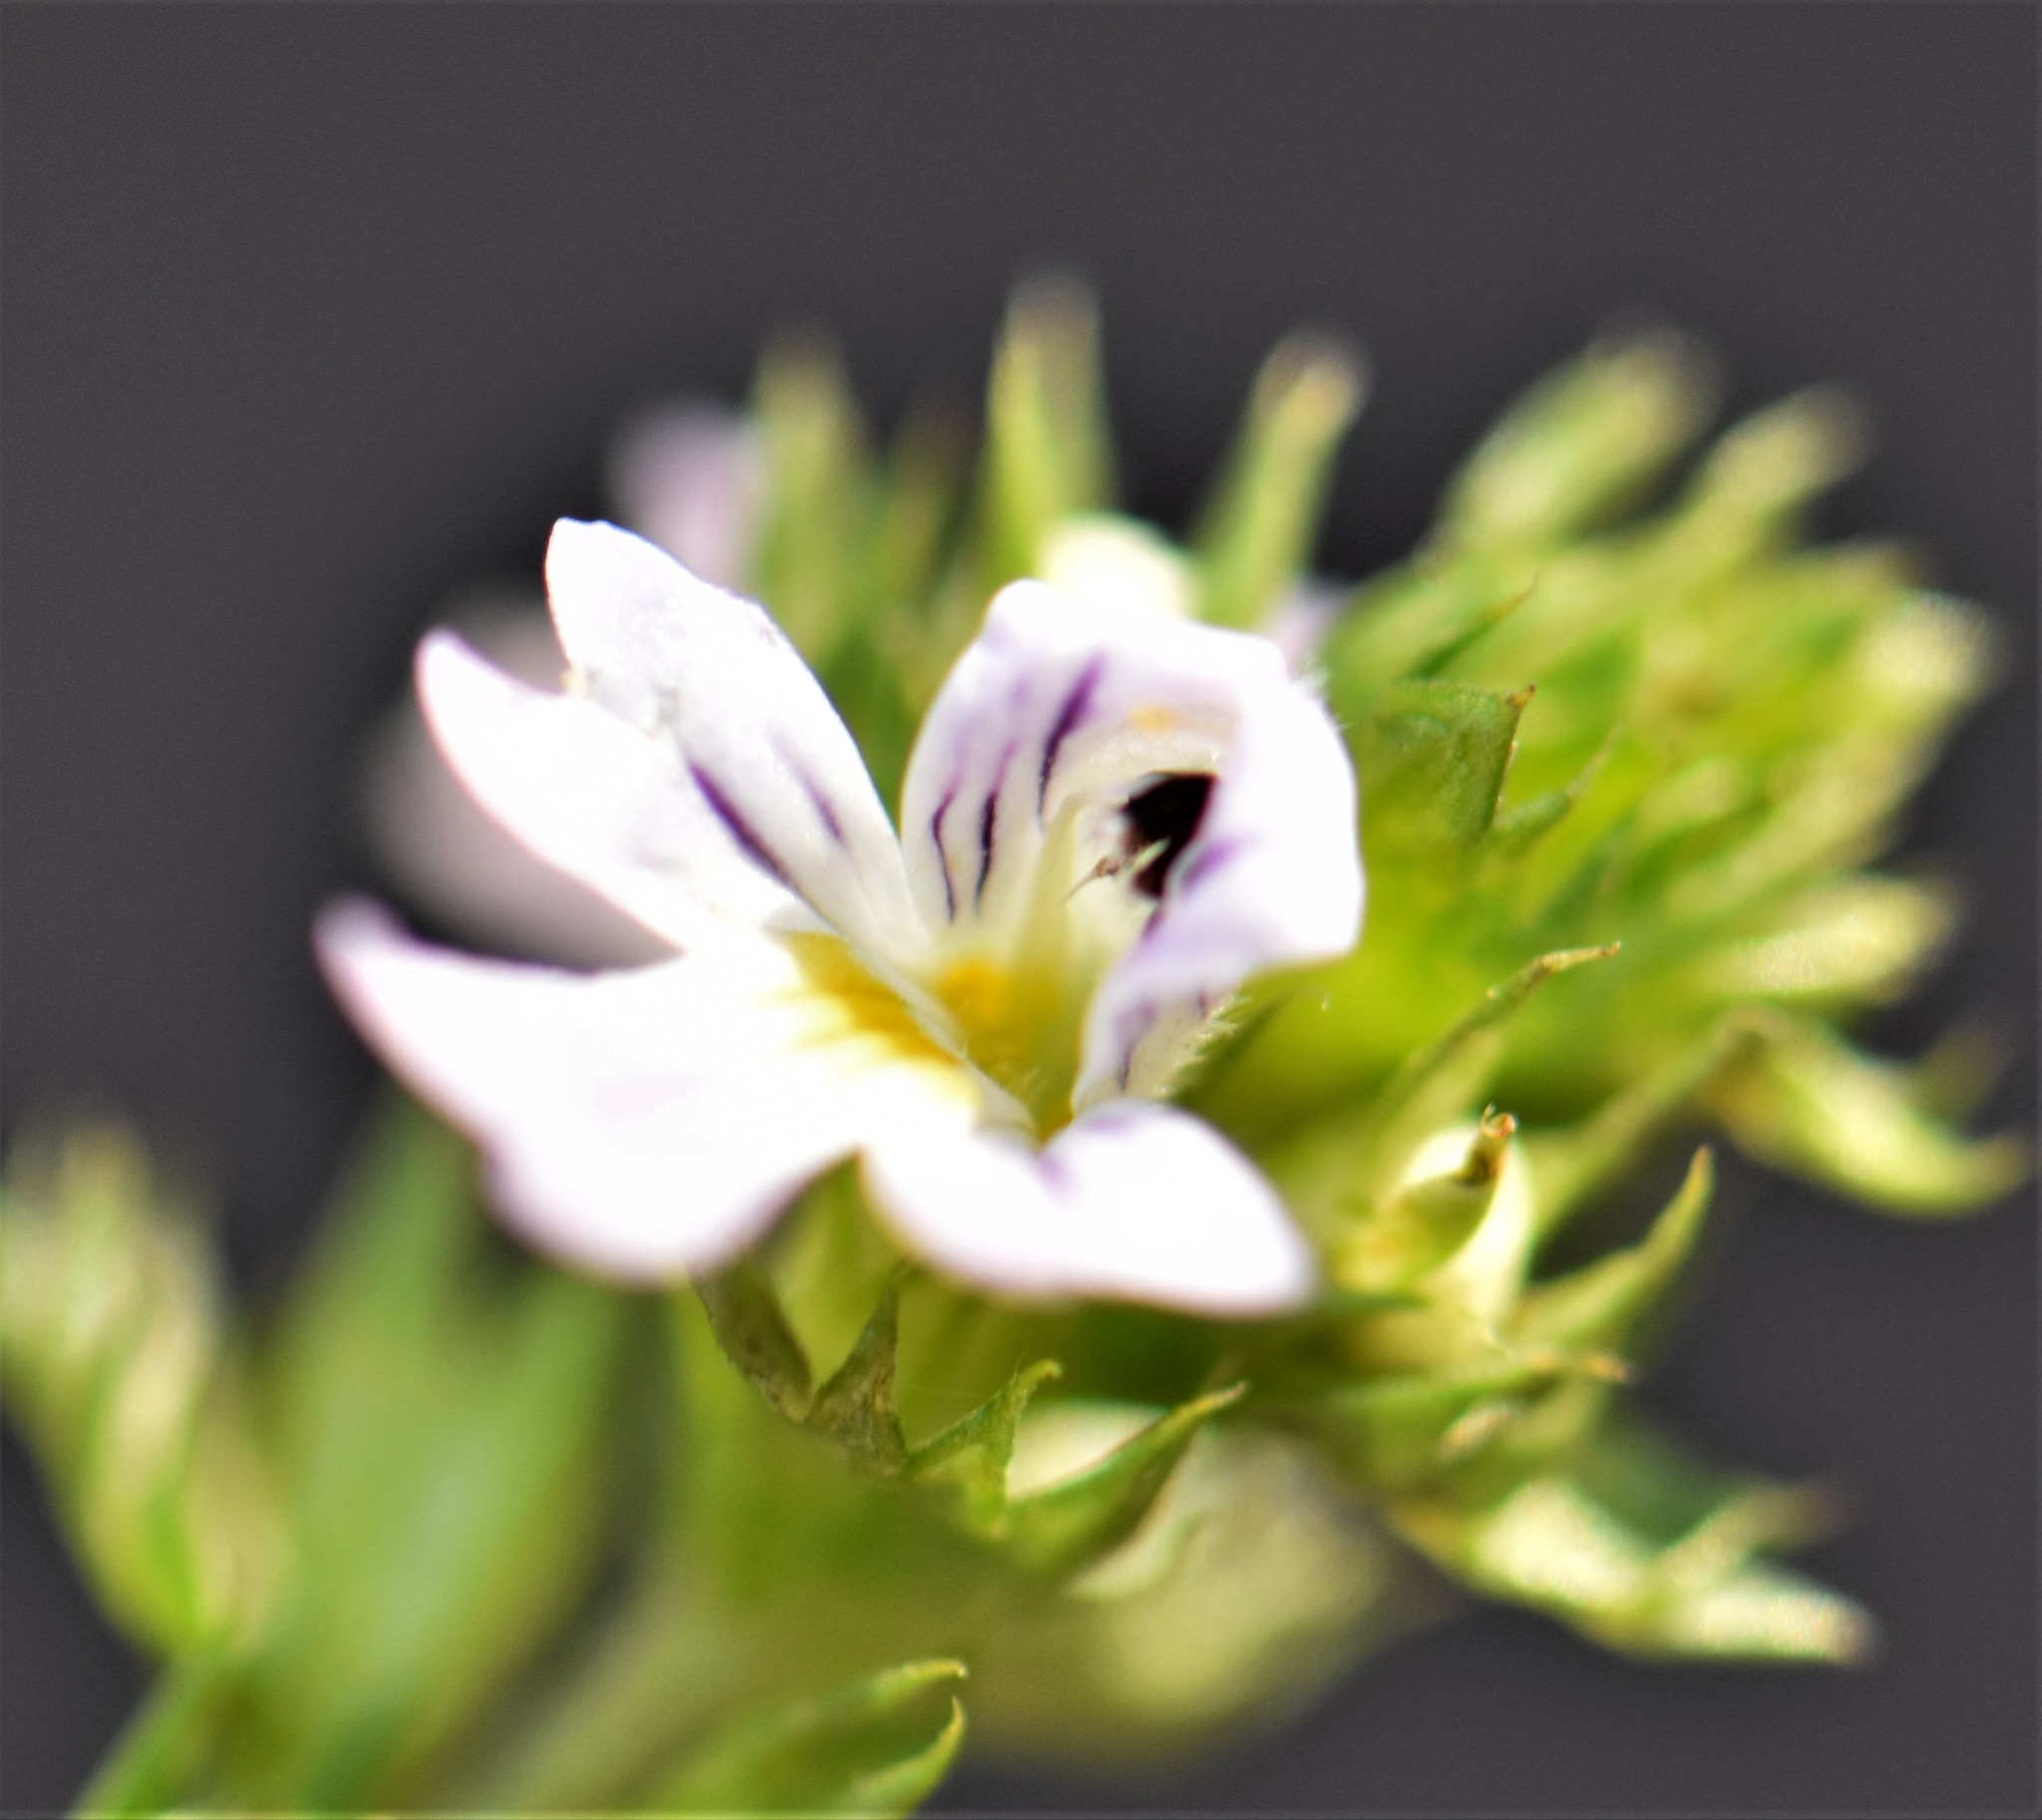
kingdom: Plantae
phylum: Tracheophyta
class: Magnoliopsida
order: Lamiales
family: Orobanchaceae
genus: Euphrasia
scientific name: Euphrasia nemorosa
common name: Common eyebright
